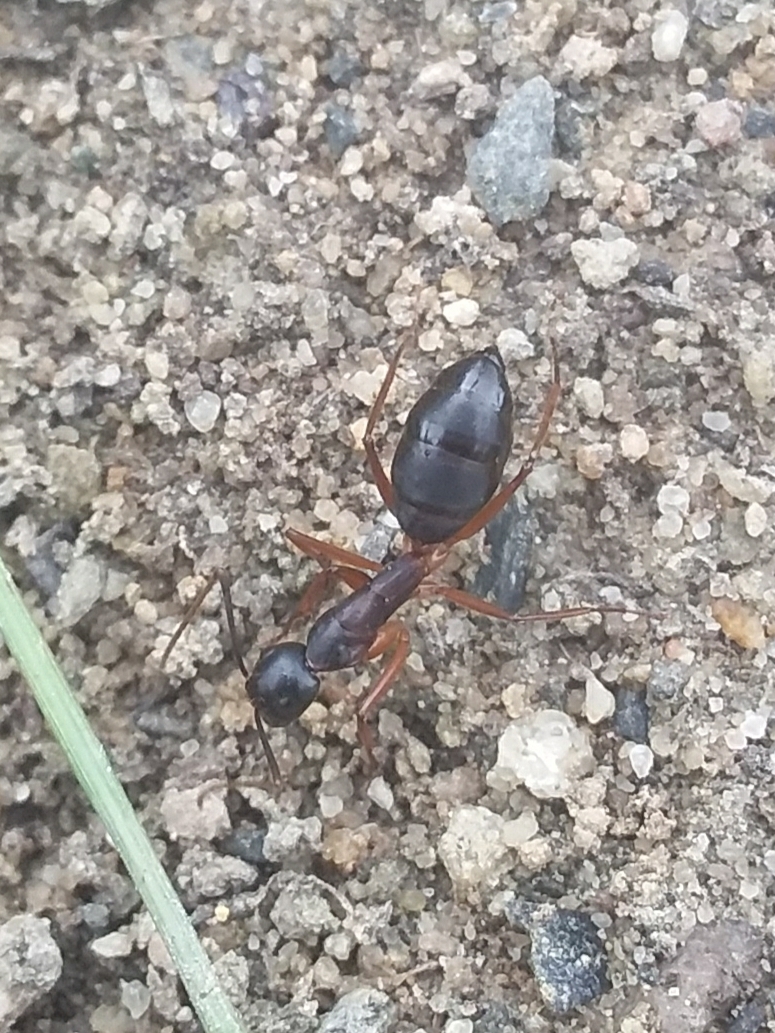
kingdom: Animalia
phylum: Arthropoda
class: Insecta
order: Hymenoptera
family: Formicidae
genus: Camponotus
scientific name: Camponotus consobrinus
